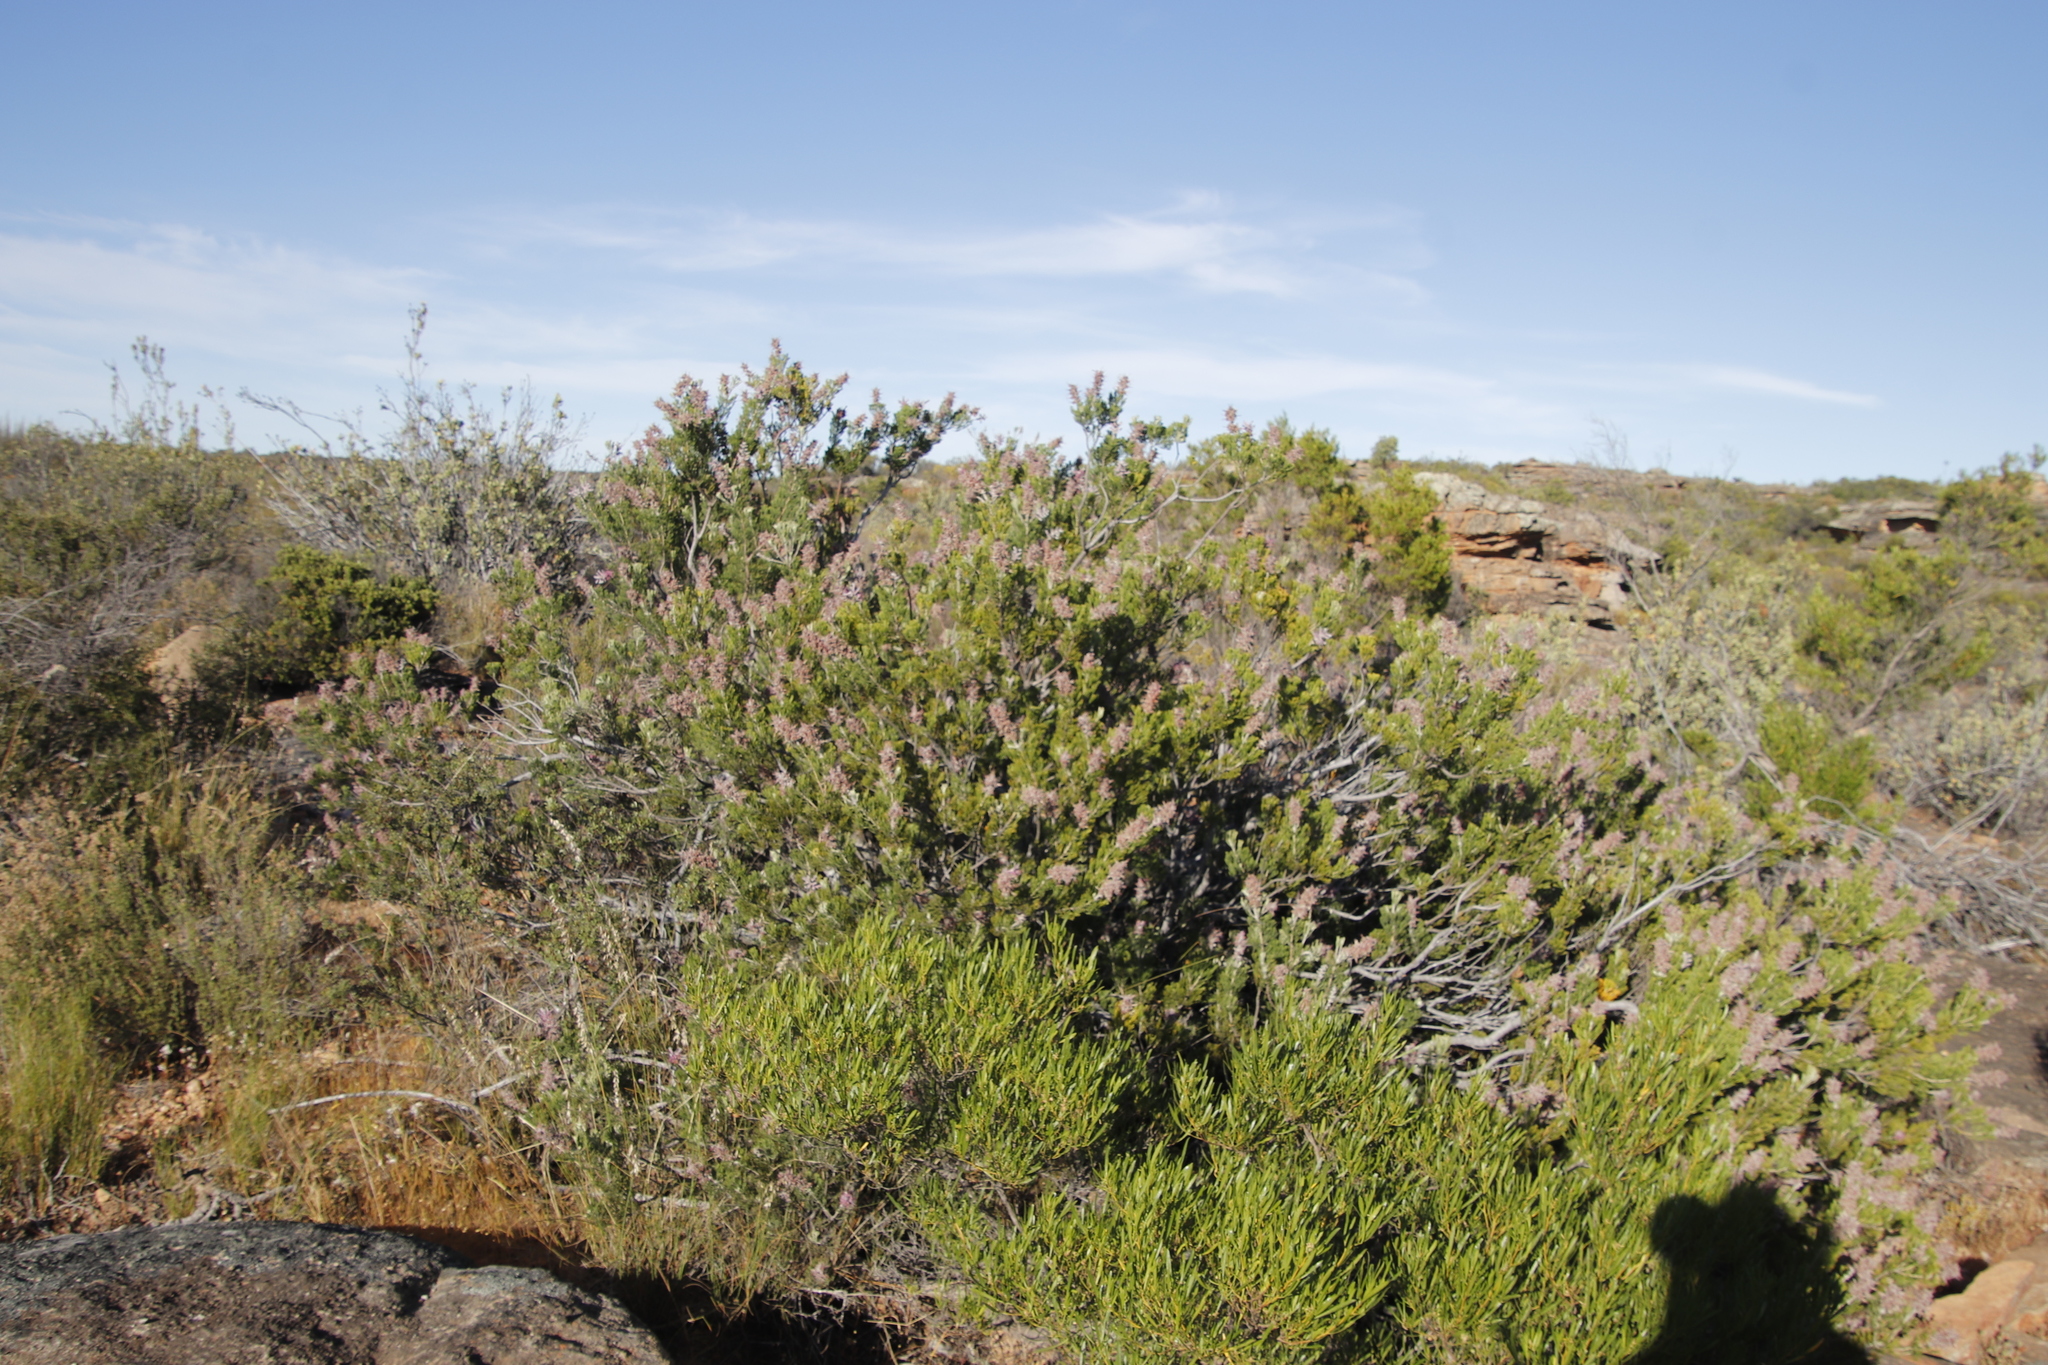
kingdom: Plantae
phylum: Tracheophyta
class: Magnoliopsida
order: Proteales
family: Proteaceae
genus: Paranomus
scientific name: Paranomus bracteolaris
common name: Bokkeveld tree sceptre
